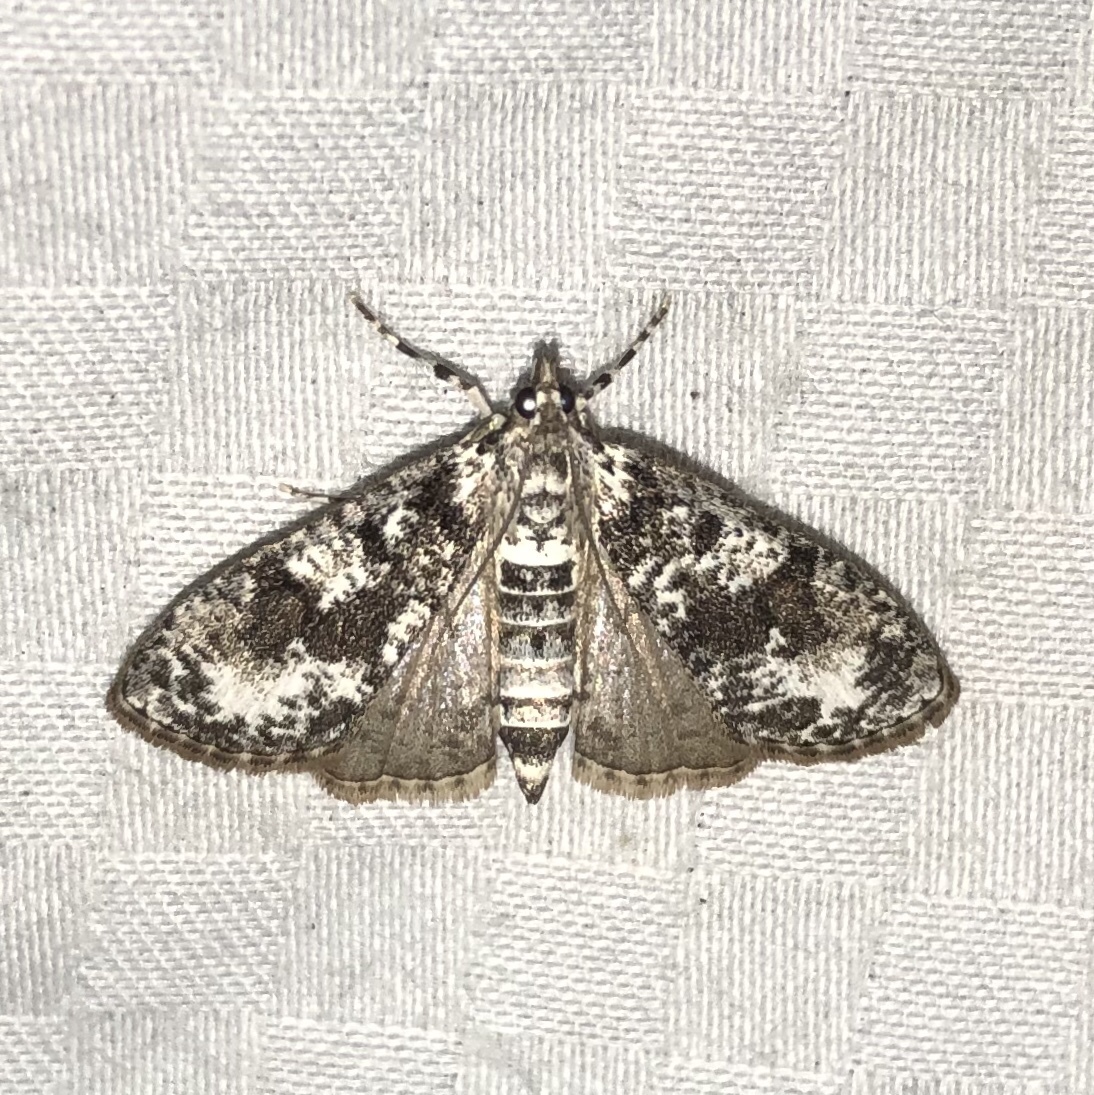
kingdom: Animalia
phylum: Arthropoda
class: Insecta
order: Lepidoptera
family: Crambidae
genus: Palpita
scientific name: Palpita magniferalis
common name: Splendid palpita moth
